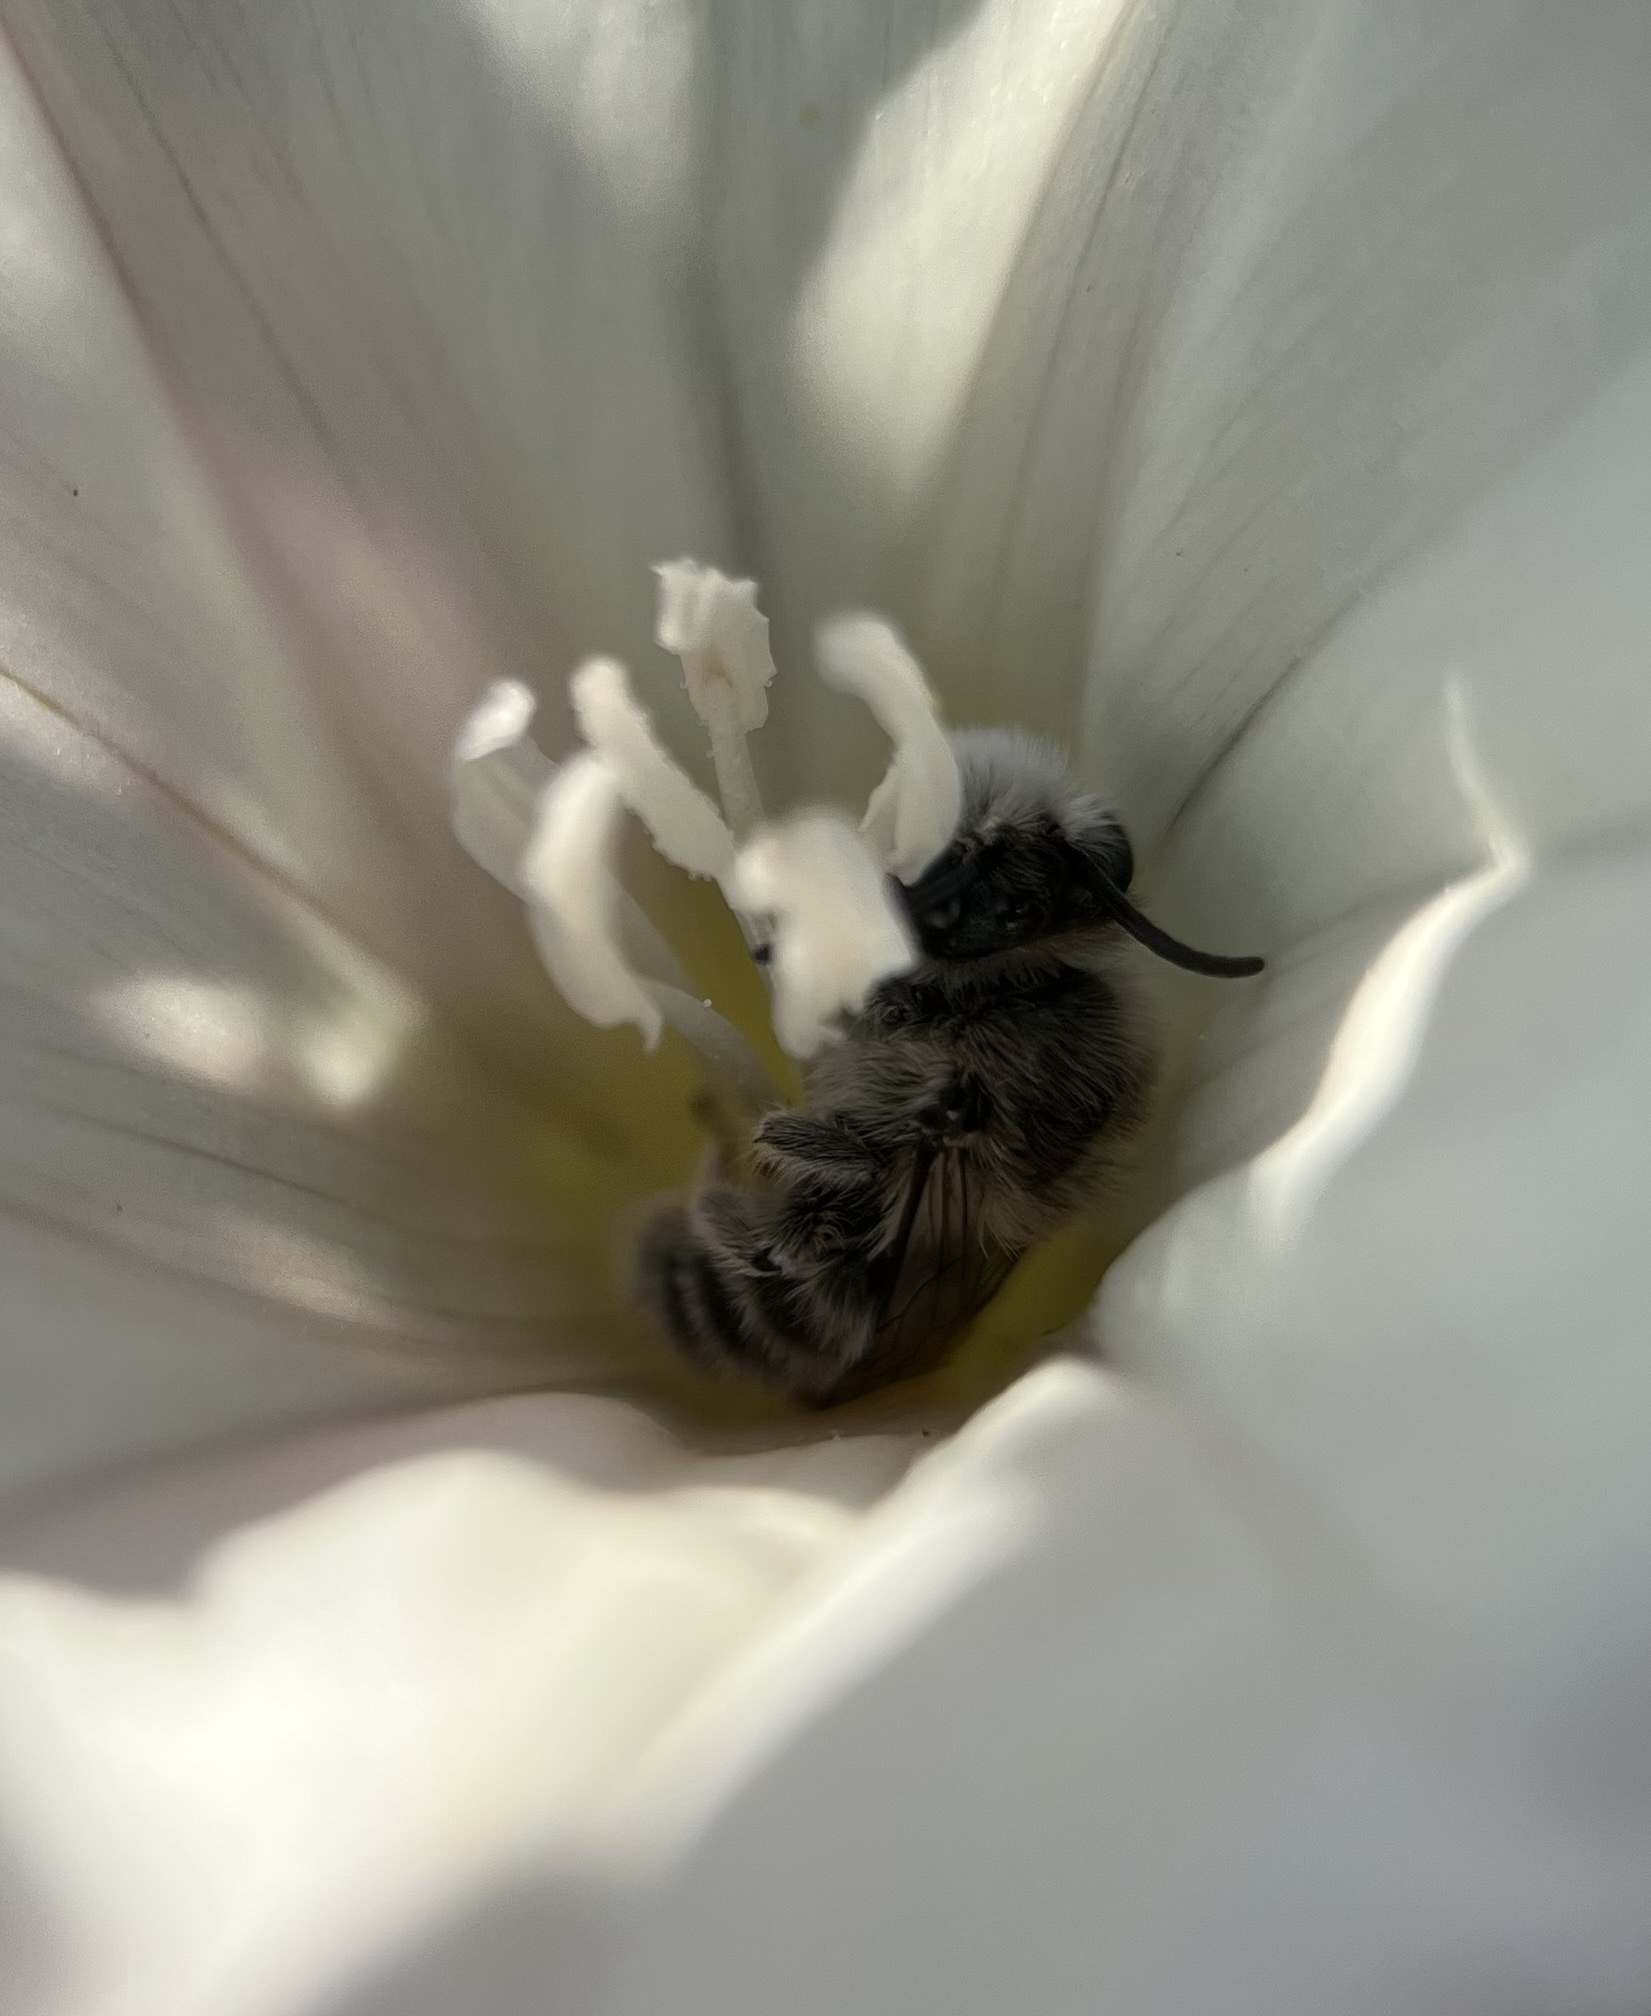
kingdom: Animalia
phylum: Arthropoda
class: Insecta
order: Hymenoptera
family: Andrenidae
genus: Ancylandrena
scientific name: Ancylandrena atoposoma
